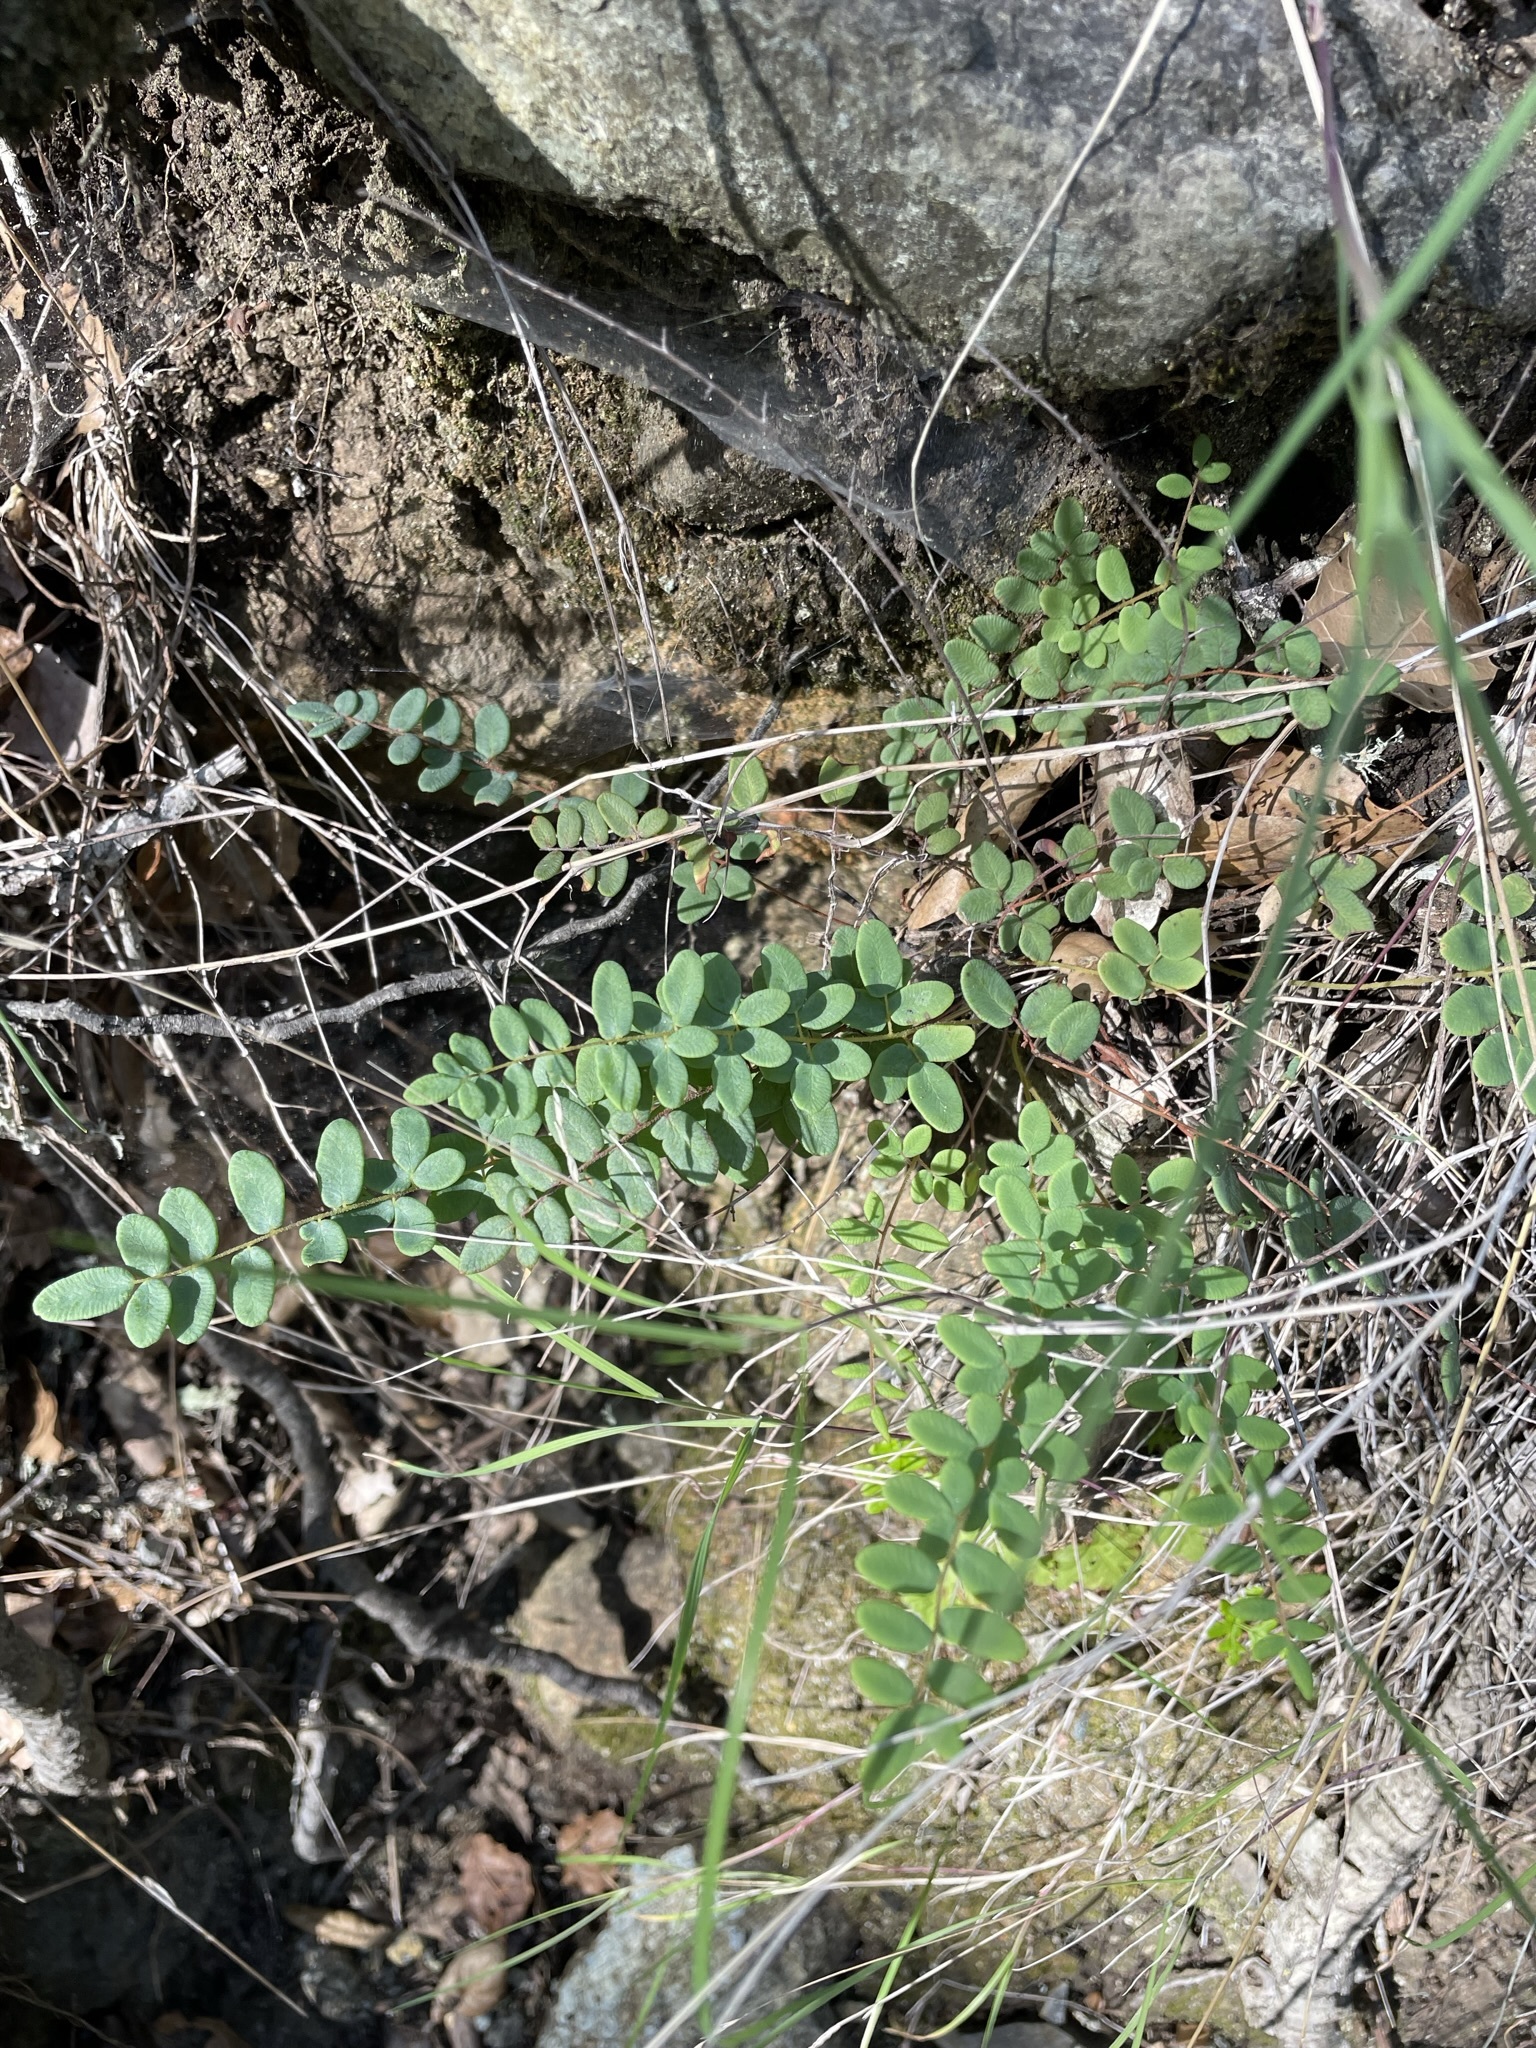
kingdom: Plantae
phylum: Tracheophyta
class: Polypodiopsida
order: Polypodiales
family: Pteridaceae
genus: Pellaea
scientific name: Pellaea andromedifolia
